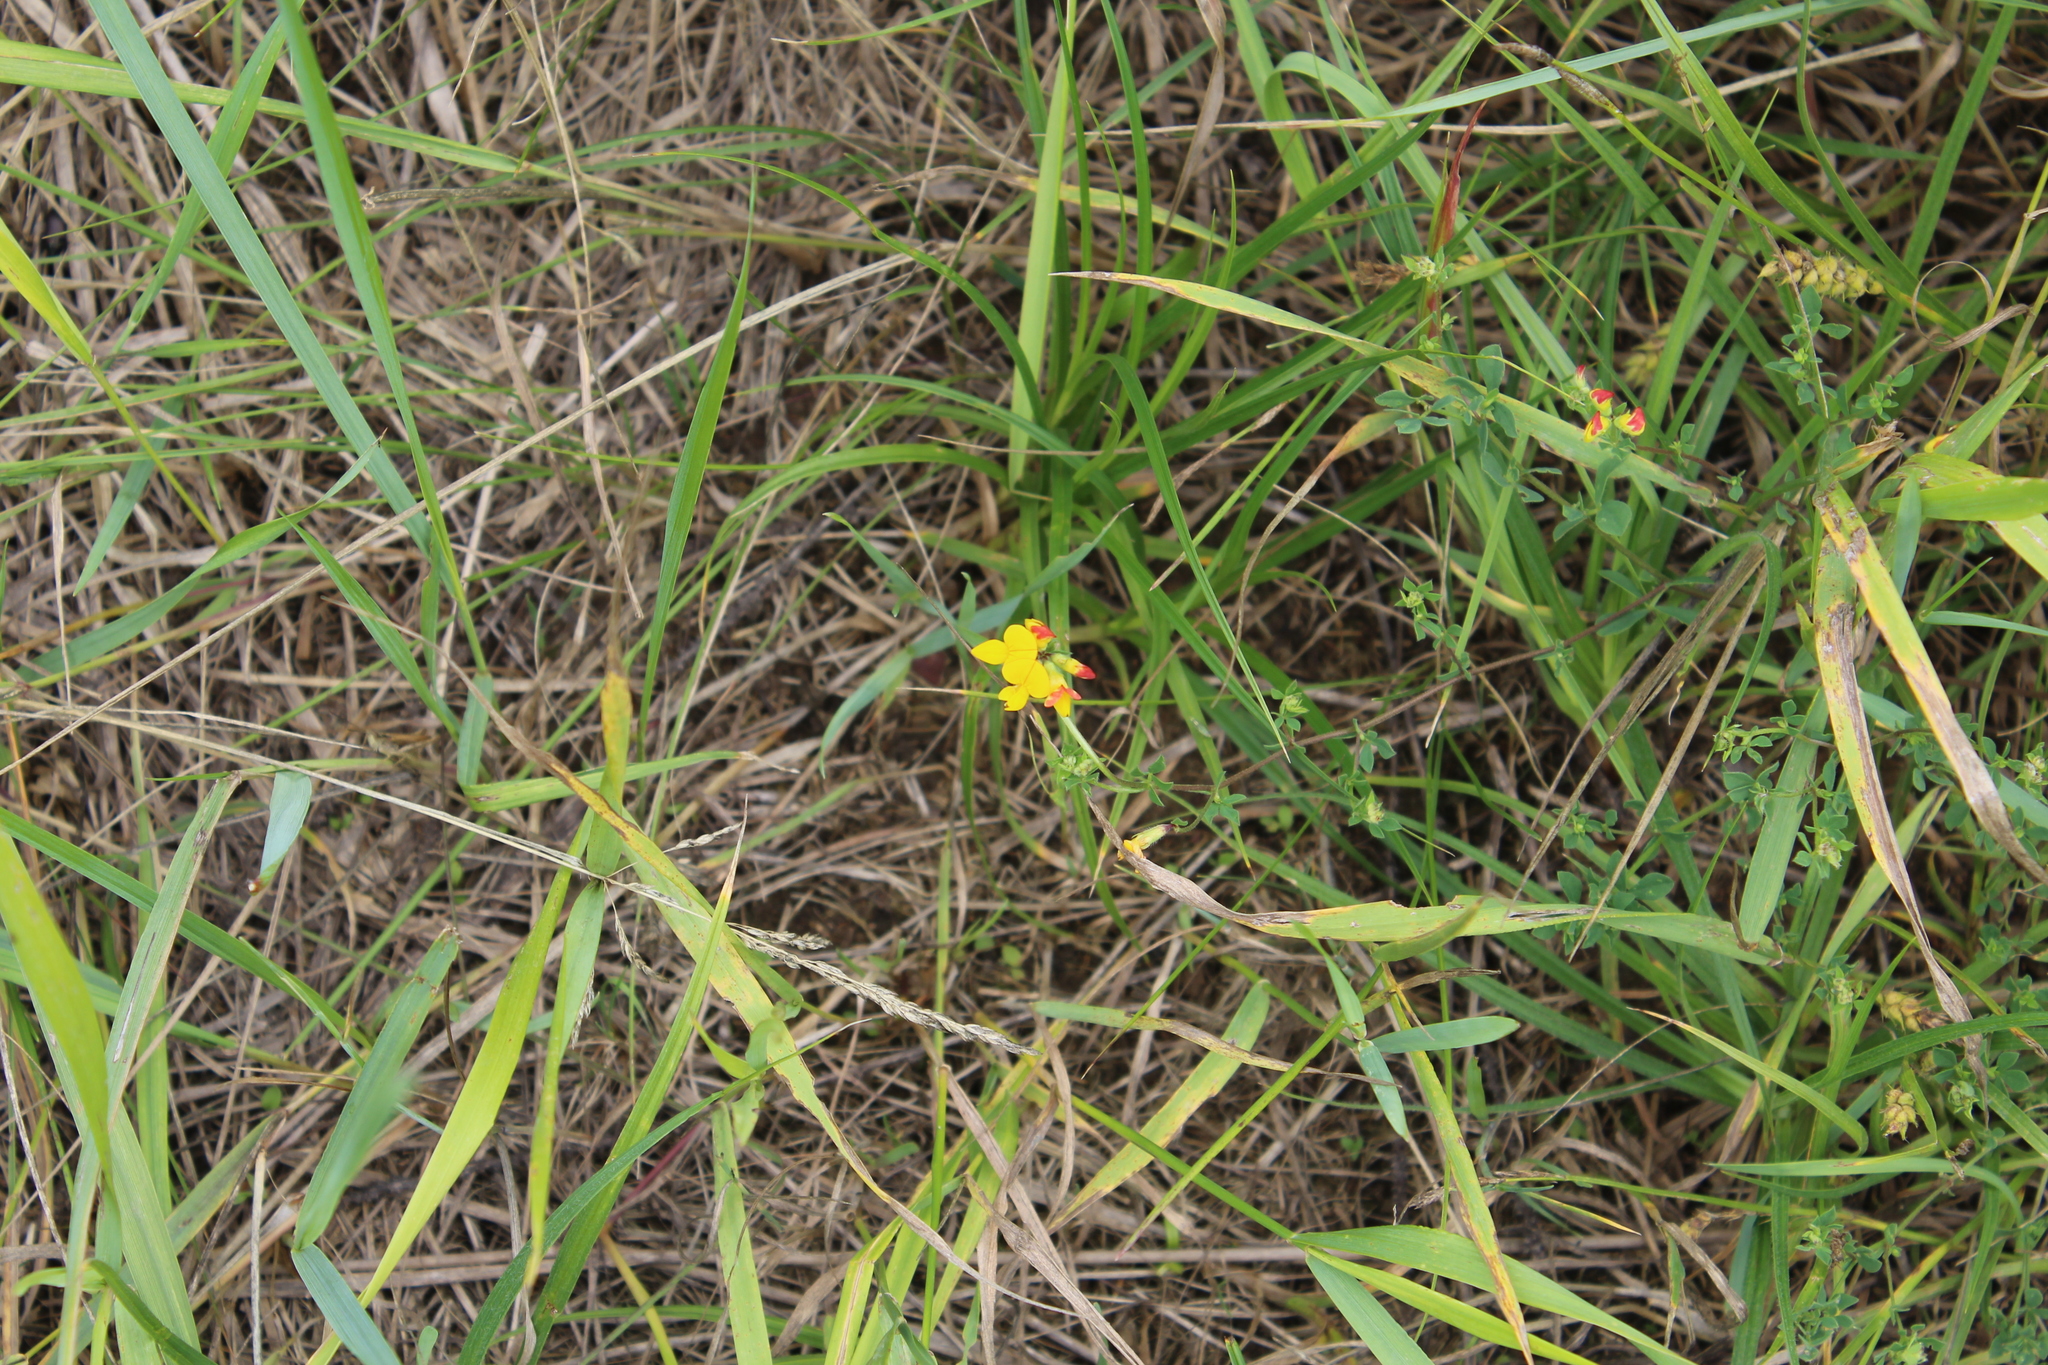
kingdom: Plantae
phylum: Tracheophyta
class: Magnoliopsida
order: Fabales
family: Fabaceae
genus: Lotus
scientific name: Lotus corniculatus
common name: Common bird's-foot-trefoil
